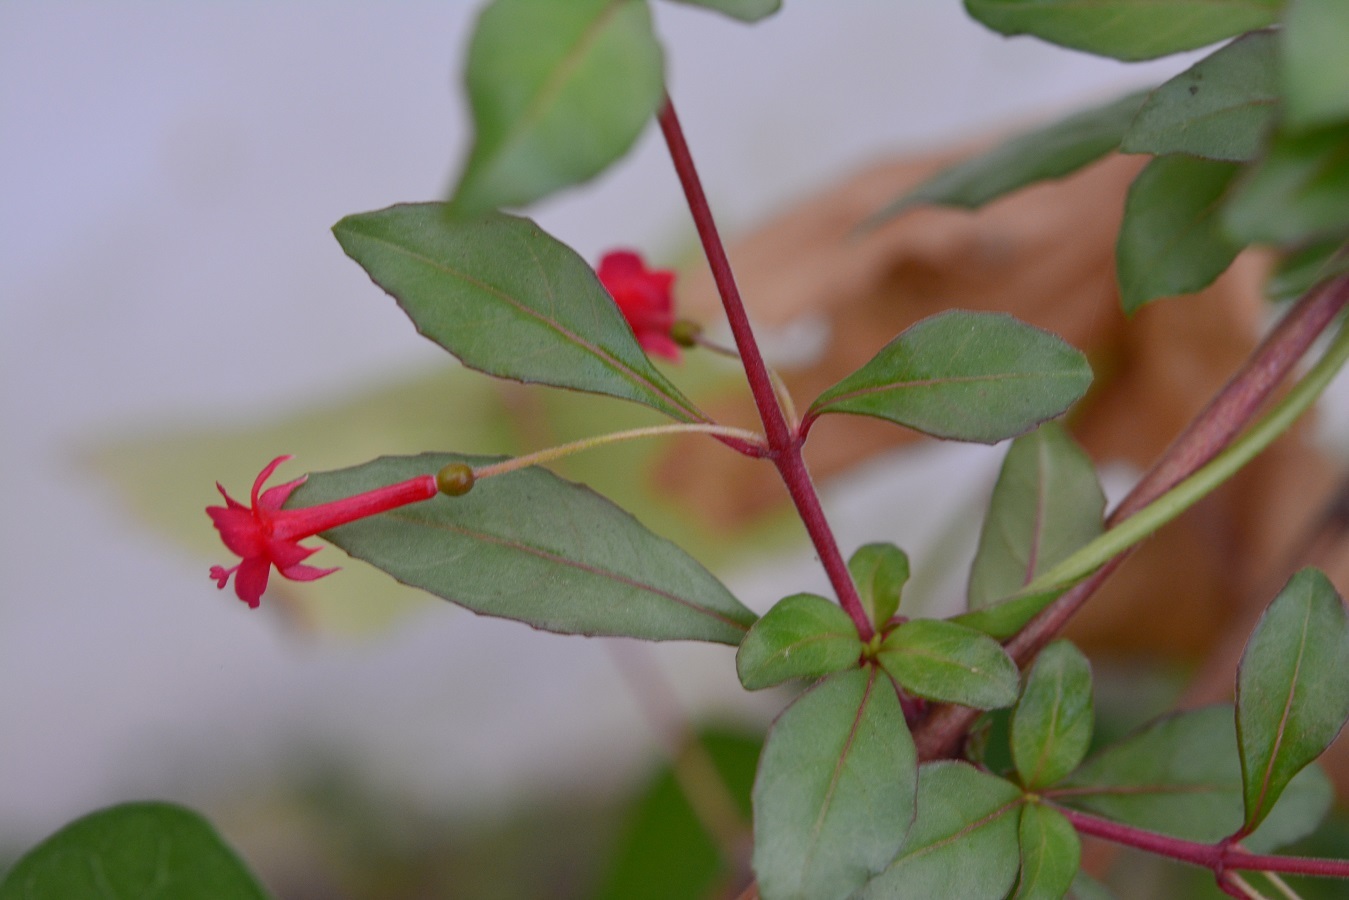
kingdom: Plantae
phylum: Tracheophyta
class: Magnoliopsida
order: Myrtales
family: Onagraceae
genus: Fuchsia
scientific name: Fuchsia microphylla
